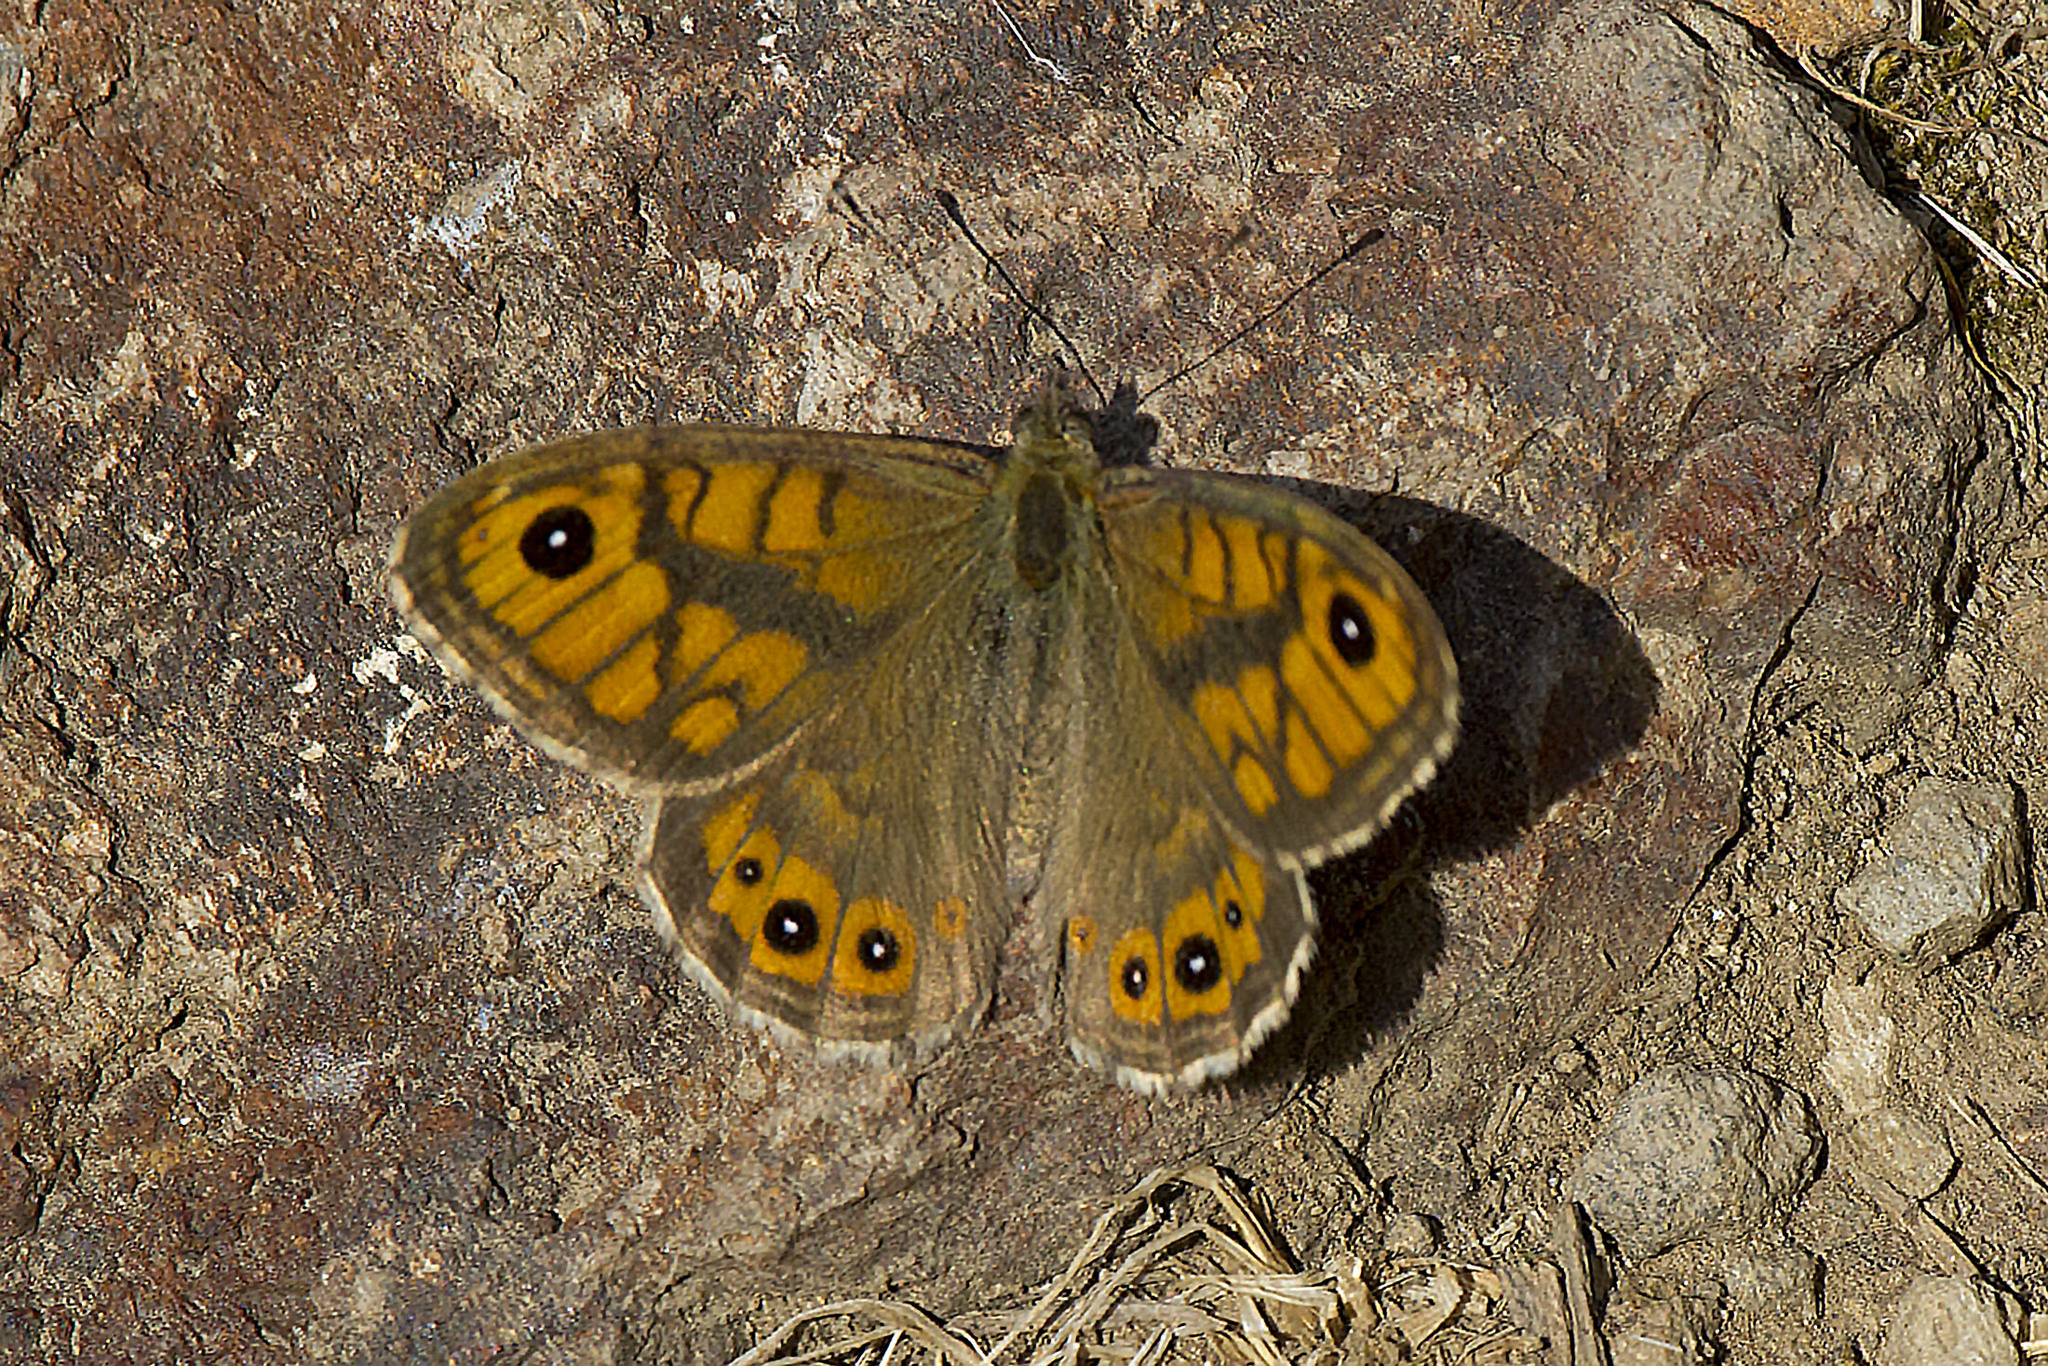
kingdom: Animalia
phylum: Arthropoda
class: Insecta
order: Lepidoptera
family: Nymphalidae
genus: Pararge
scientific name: Pararge Lasiommata megera
